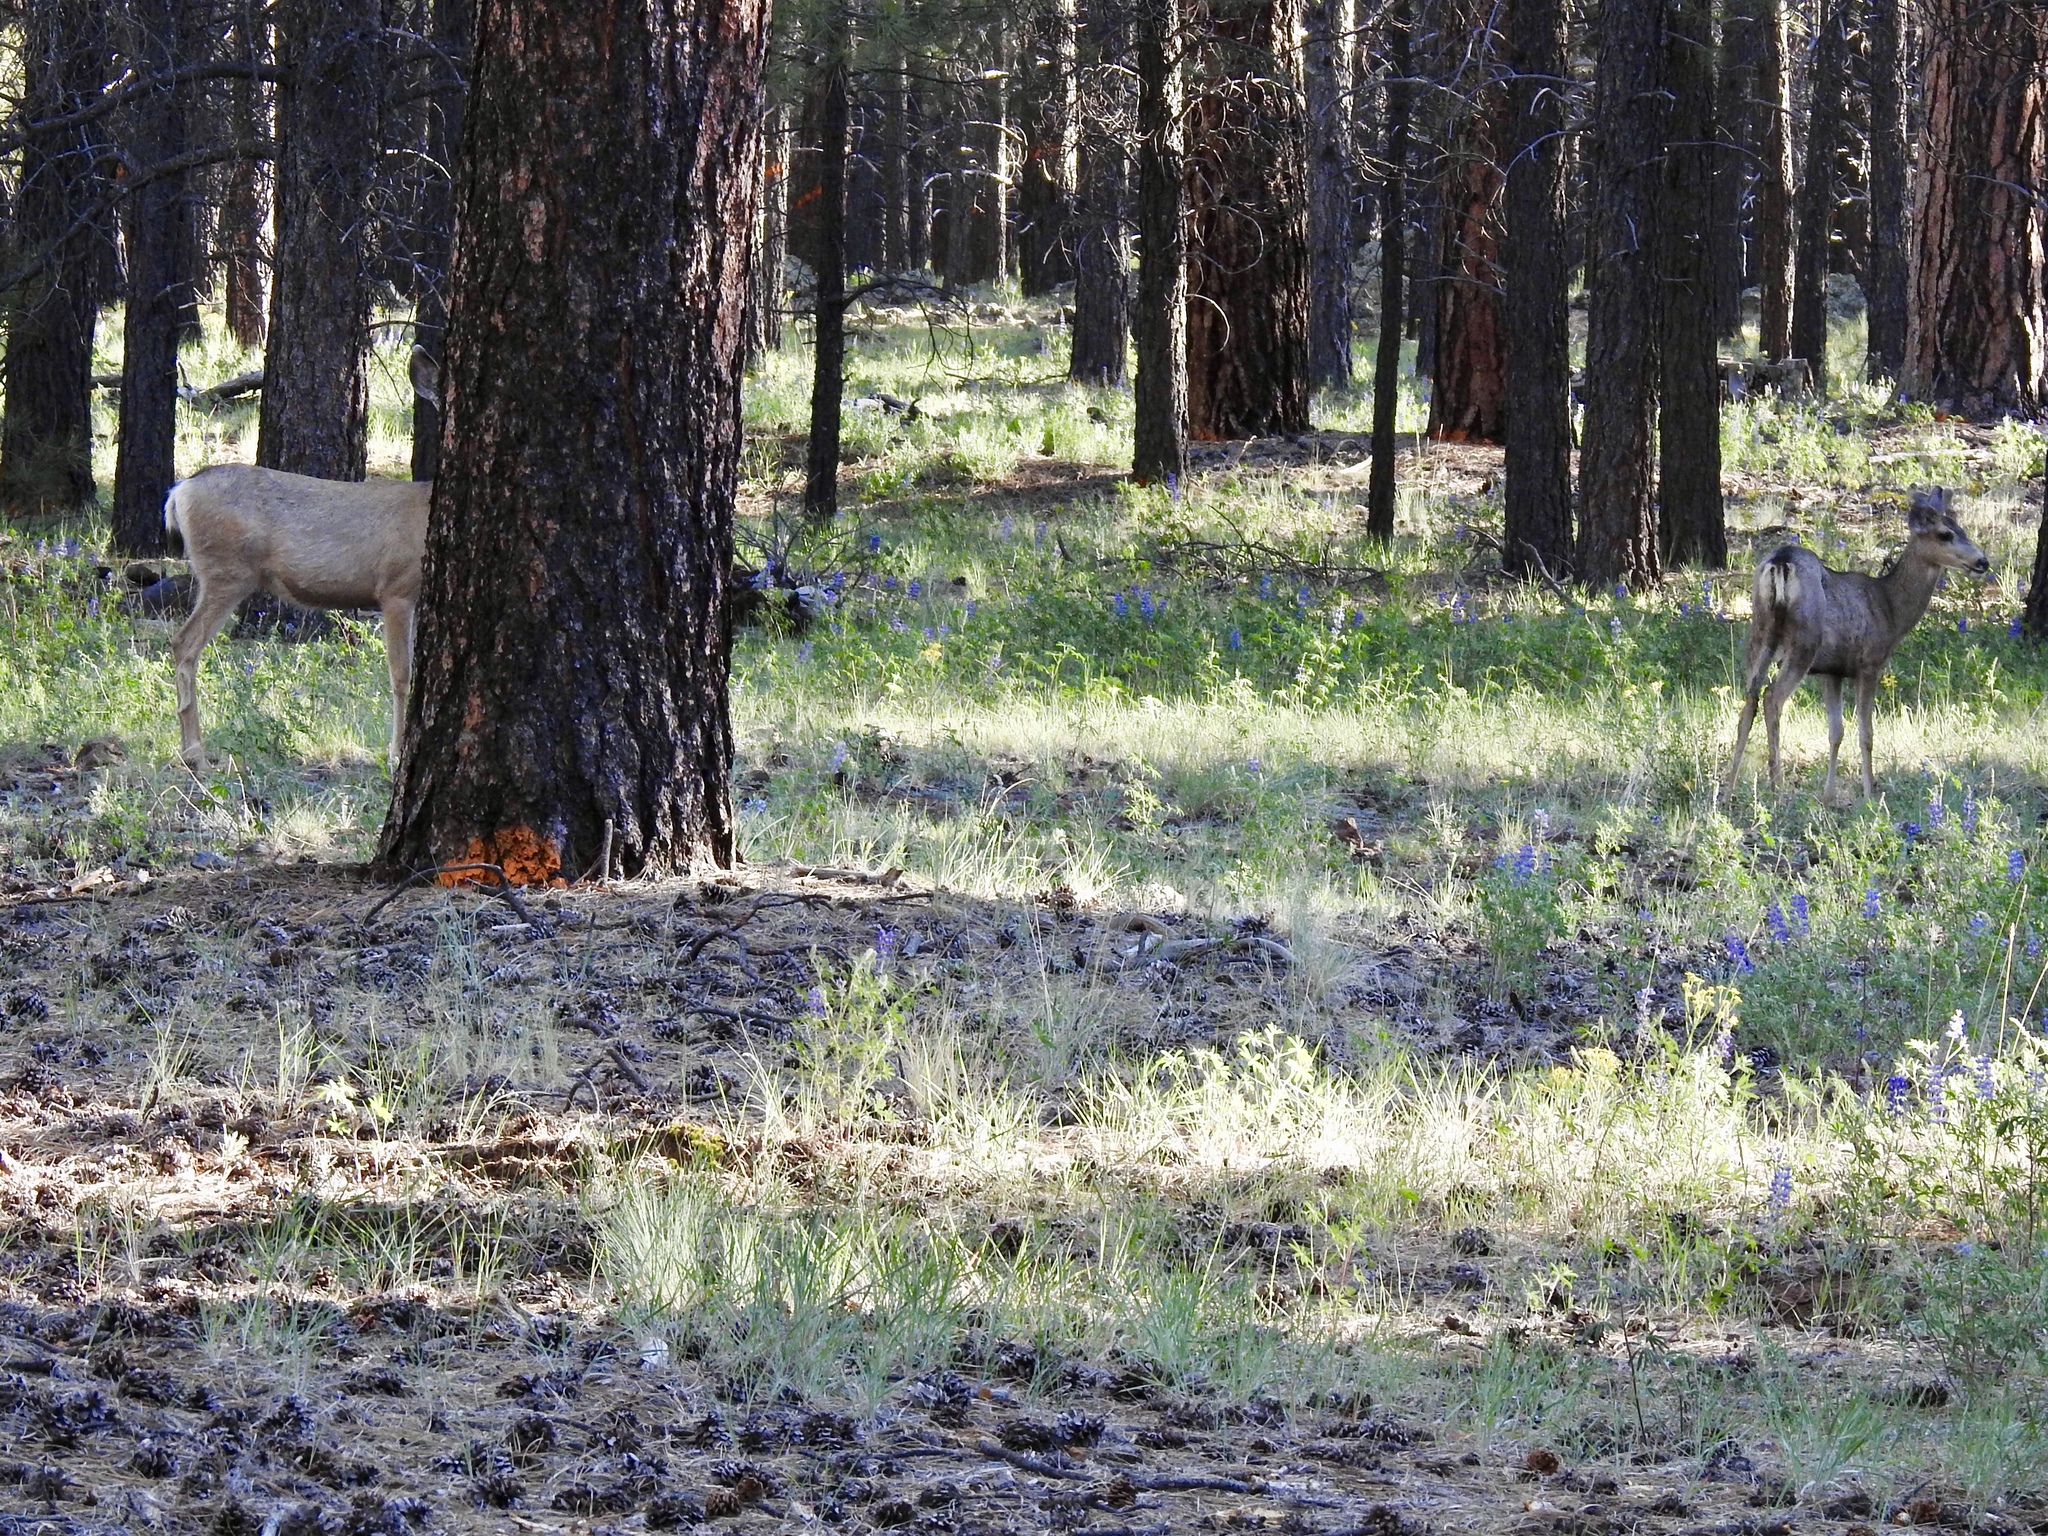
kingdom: Animalia
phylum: Chordata
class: Mammalia
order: Artiodactyla
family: Cervidae
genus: Odocoileus
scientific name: Odocoileus hemionus
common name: Mule deer
